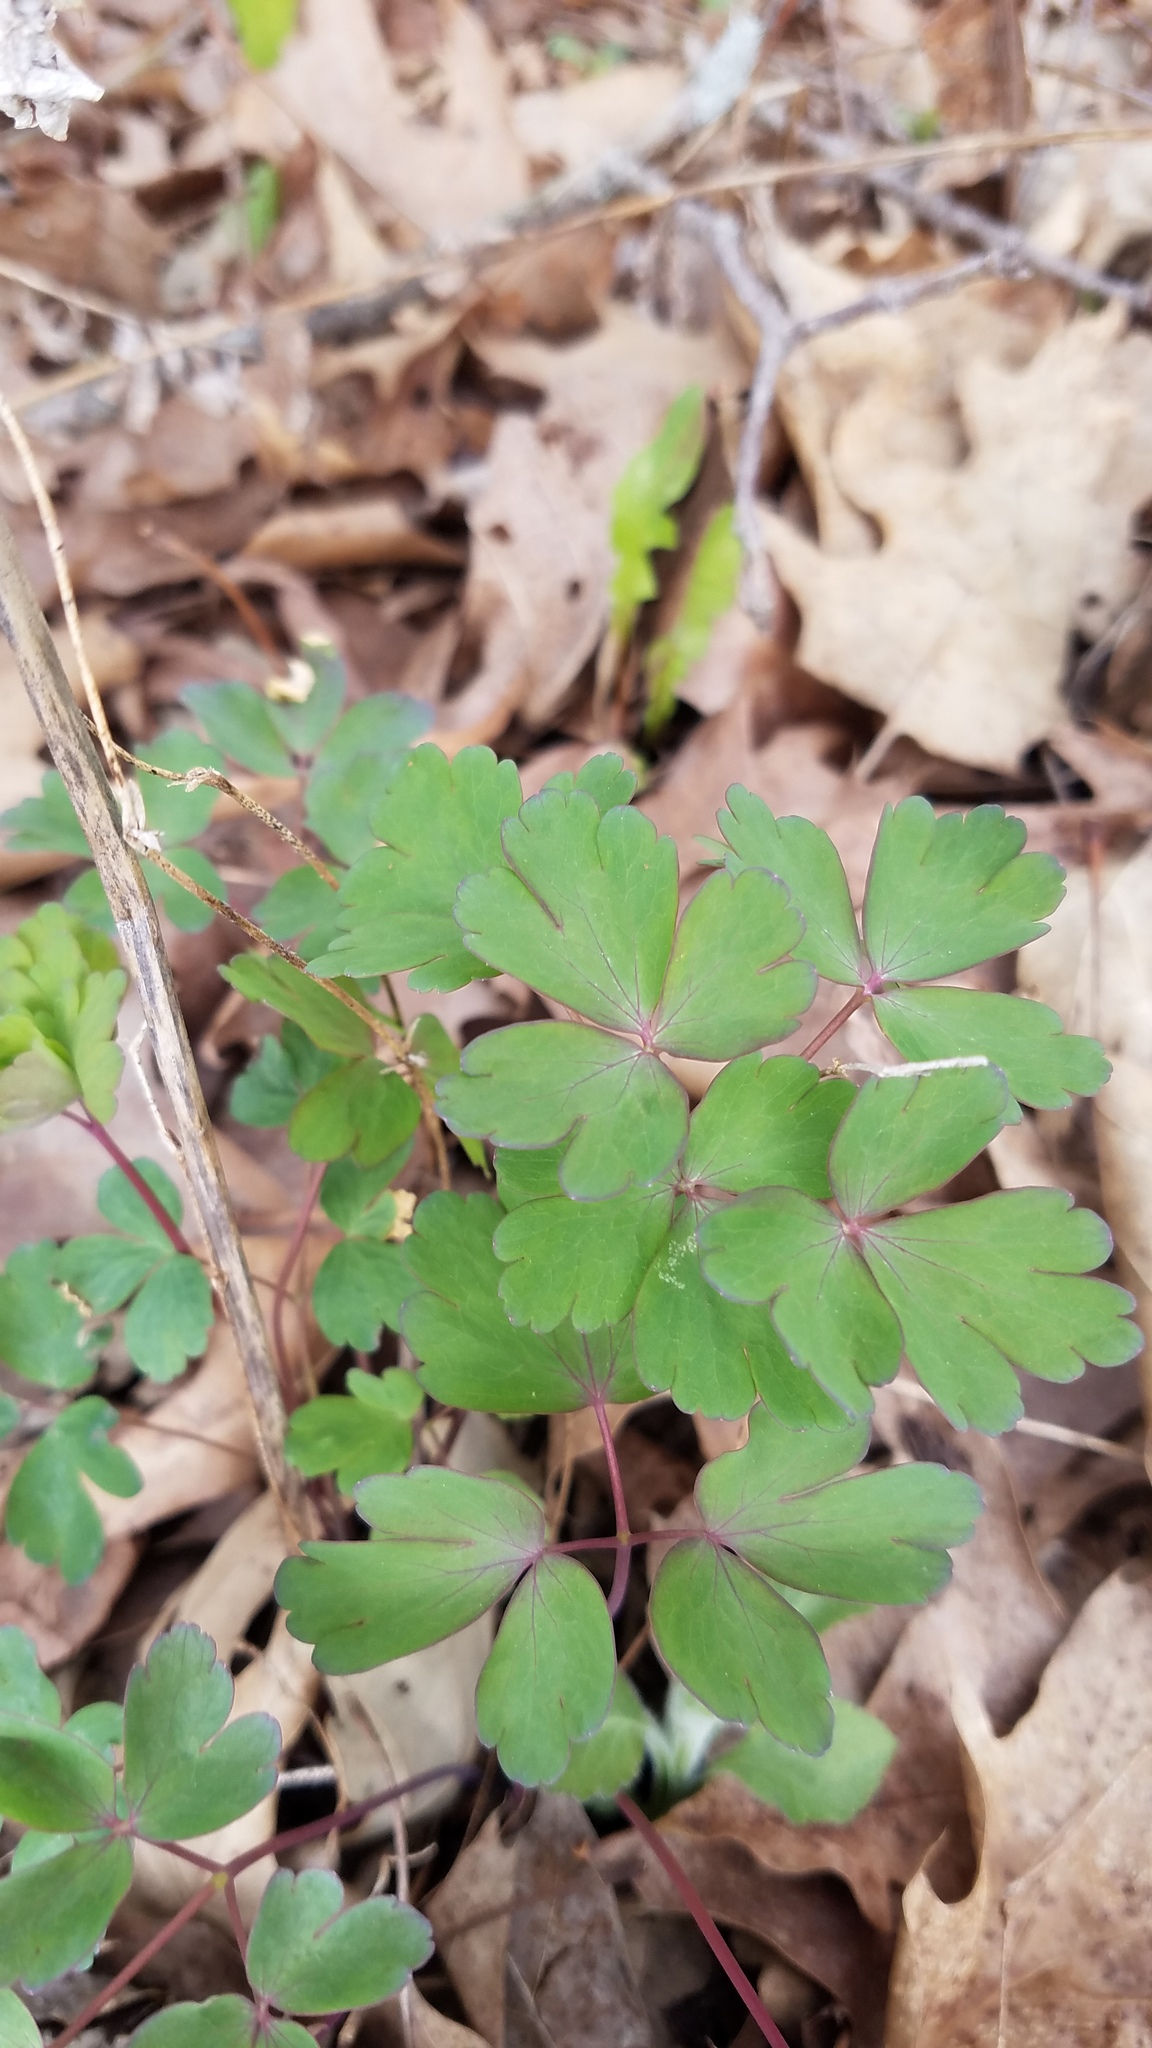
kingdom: Plantae
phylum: Tracheophyta
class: Magnoliopsida
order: Ranunculales
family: Ranunculaceae
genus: Enemion
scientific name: Enemion biternatum
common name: Eastern false rue-anemone
